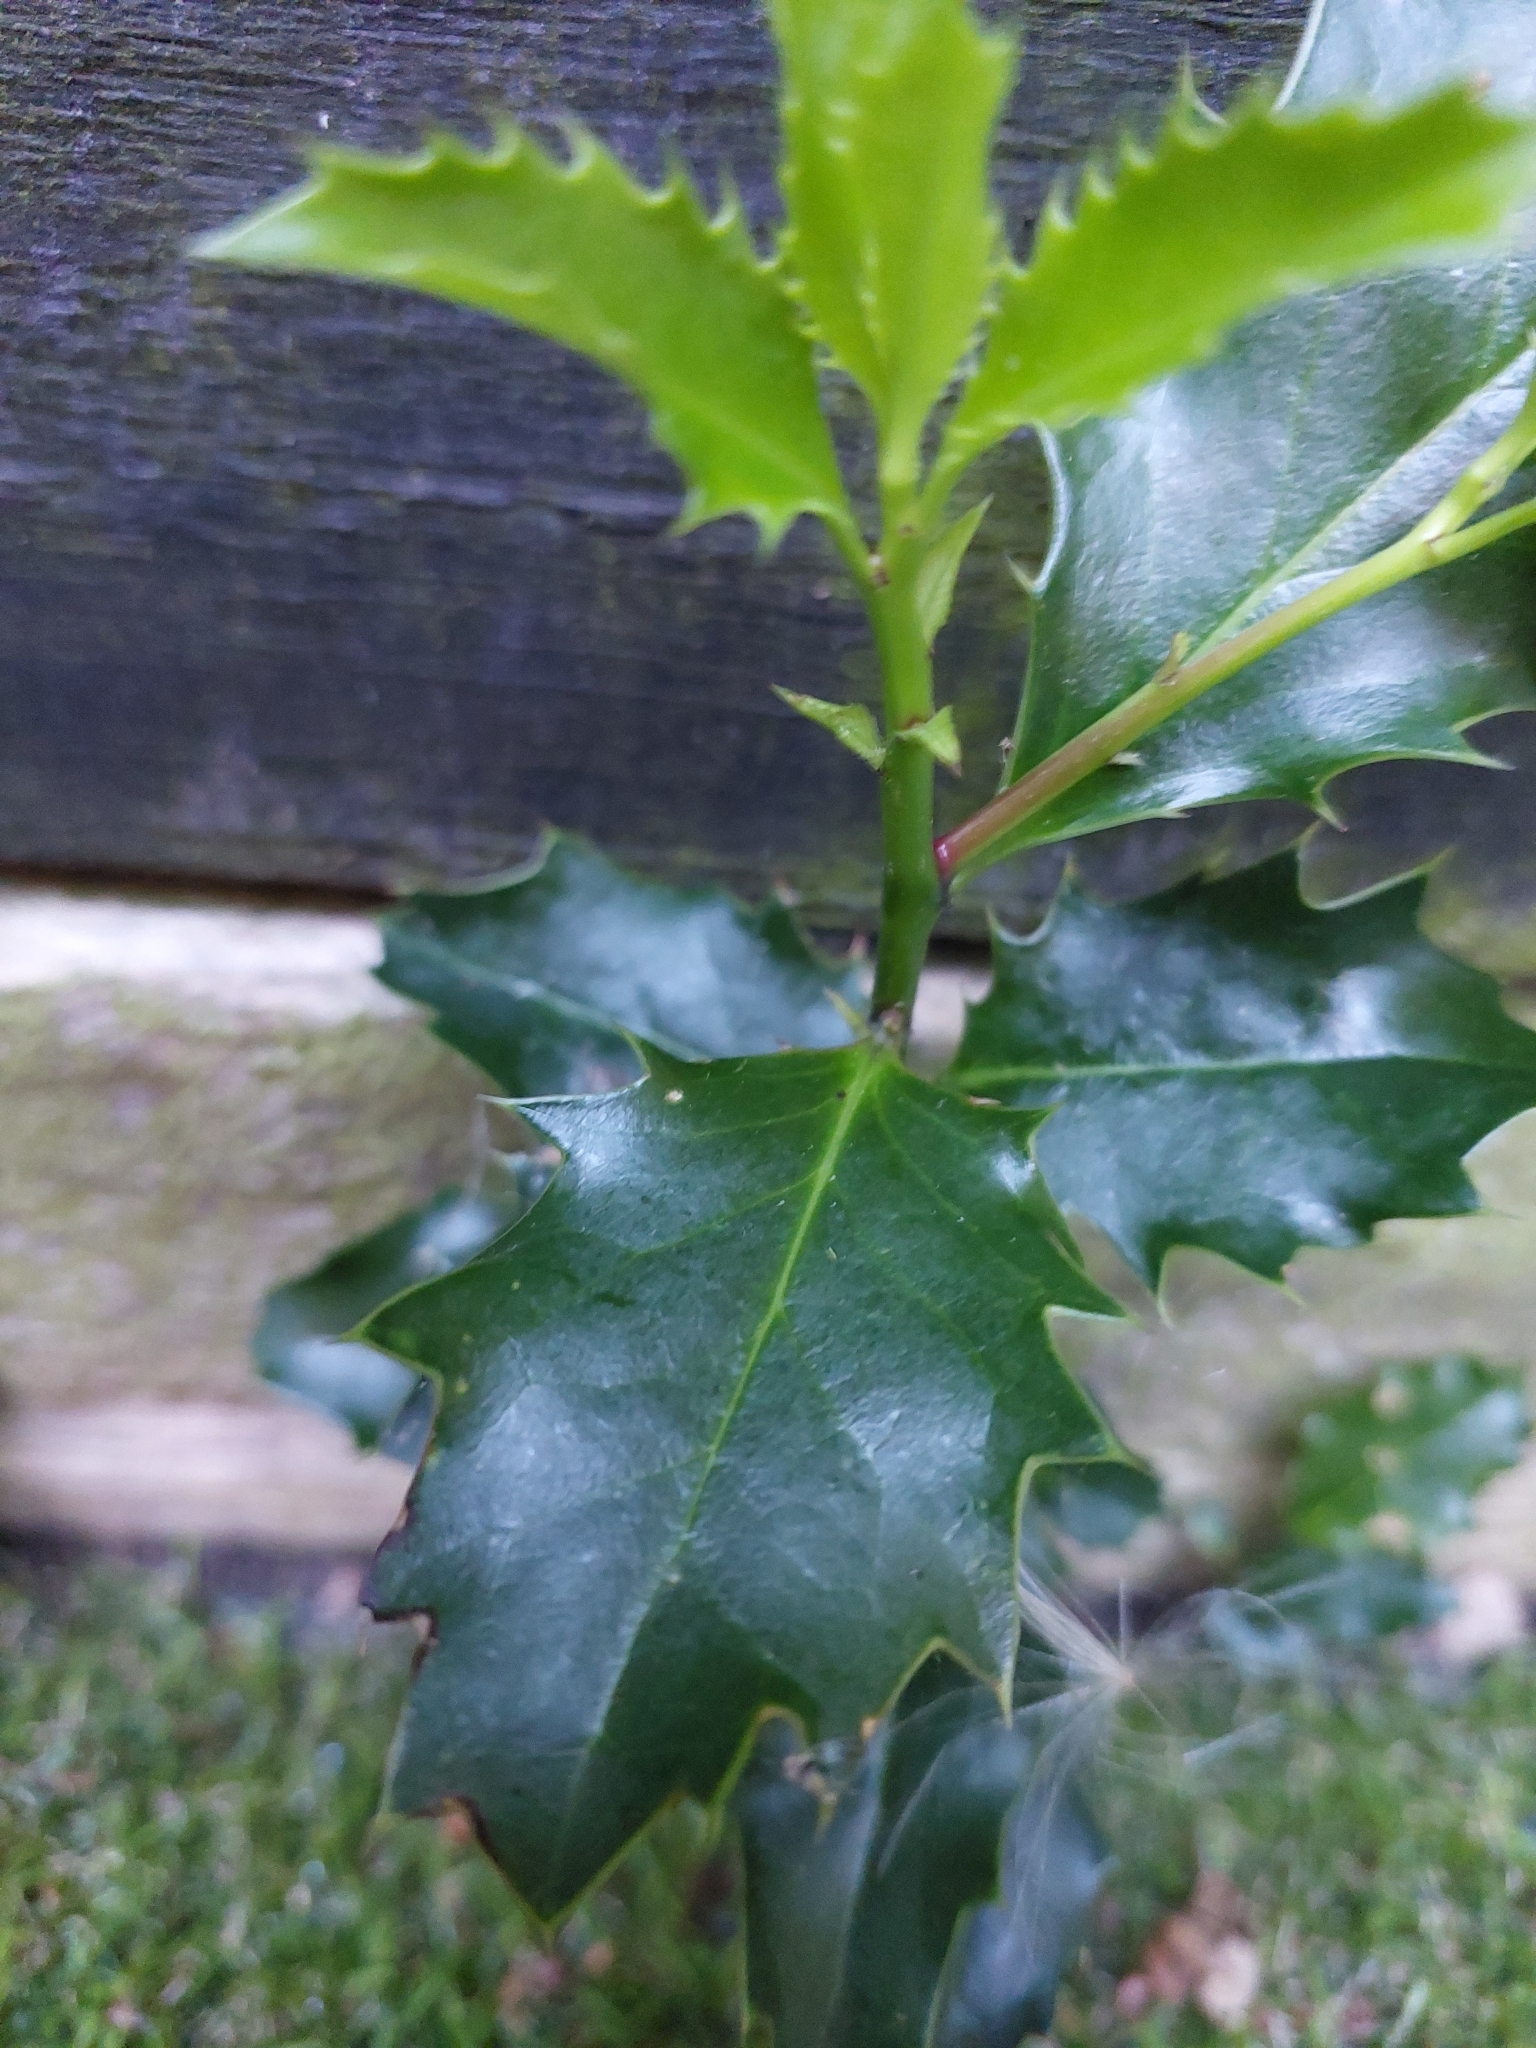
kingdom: Plantae
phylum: Tracheophyta
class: Magnoliopsida
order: Aquifoliales
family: Aquifoliaceae
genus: Ilex
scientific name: Ilex aquifolium
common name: English holly
